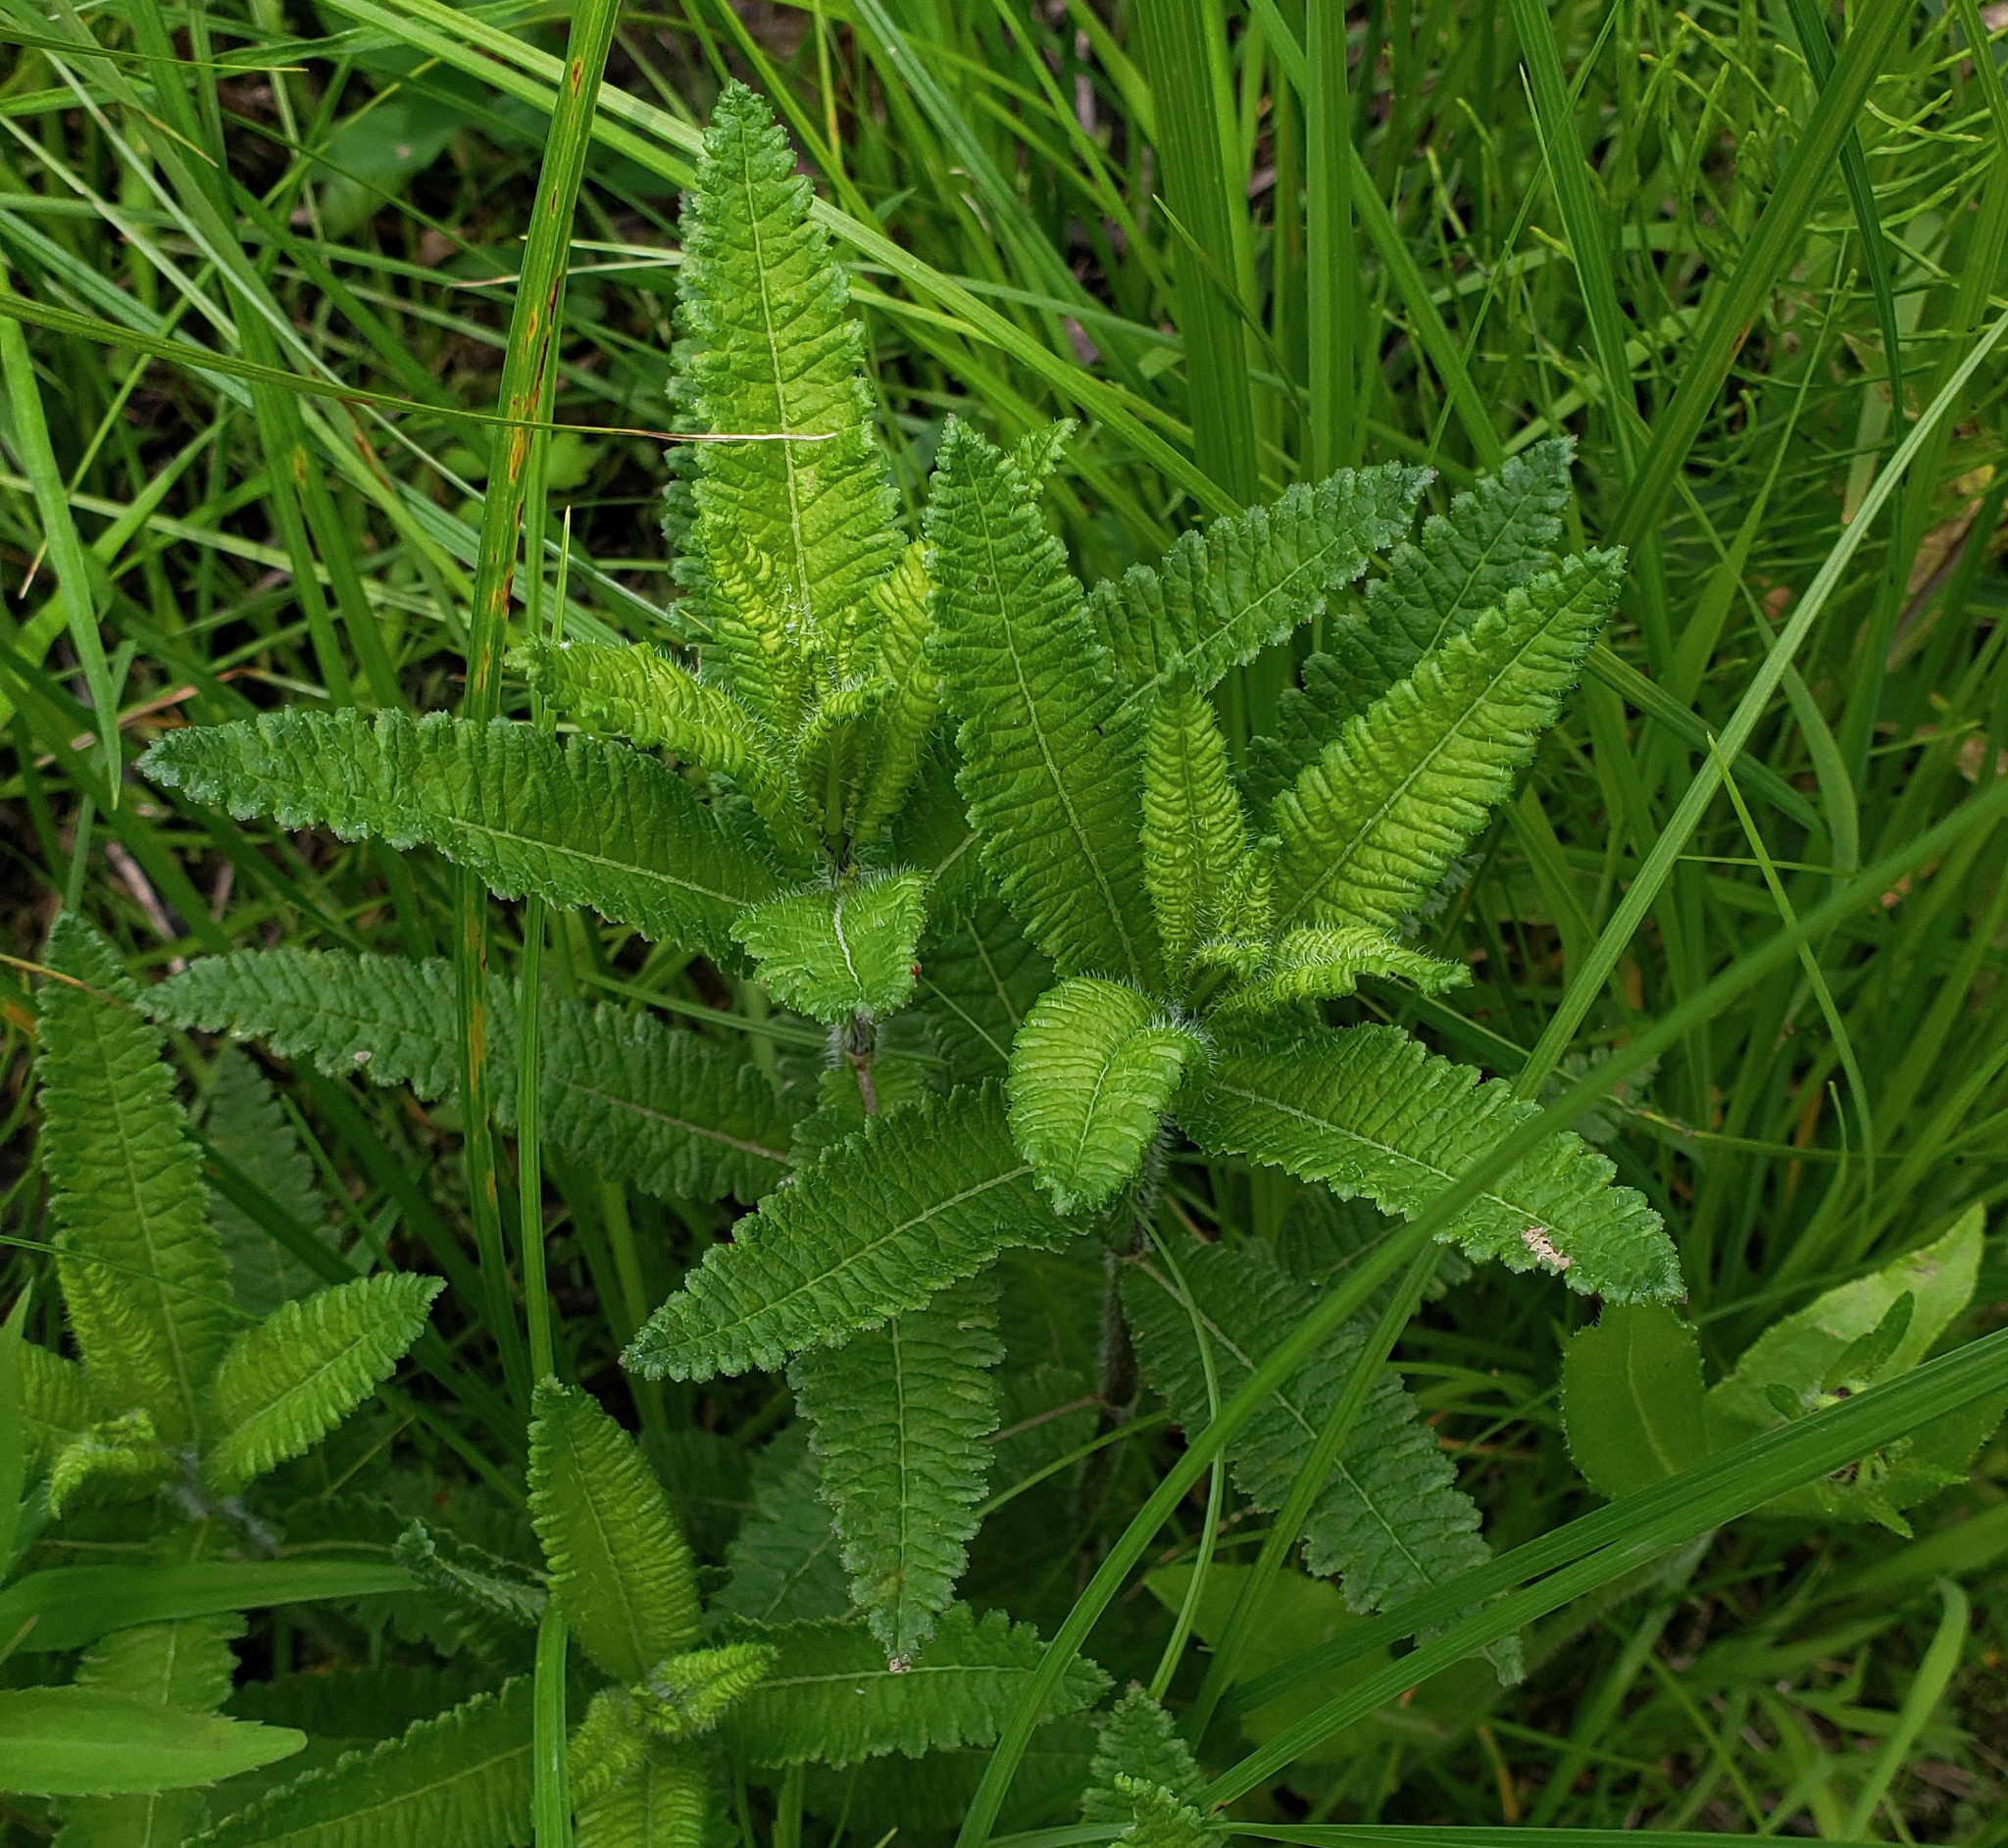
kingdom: Plantae
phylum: Tracheophyta
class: Magnoliopsida
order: Lamiales
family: Orobanchaceae
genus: Pedicularis
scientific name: Pedicularis lanceolata
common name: Swamp lousewort
